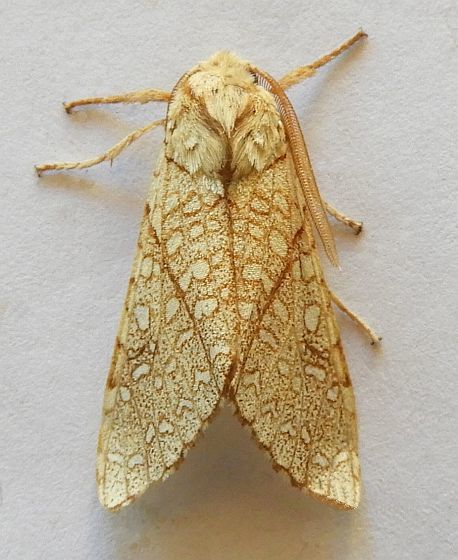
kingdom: Animalia
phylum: Arthropoda
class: Insecta
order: Lepidoptera
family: Erebidae
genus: Lophocampa
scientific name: Lophocampa mixta
